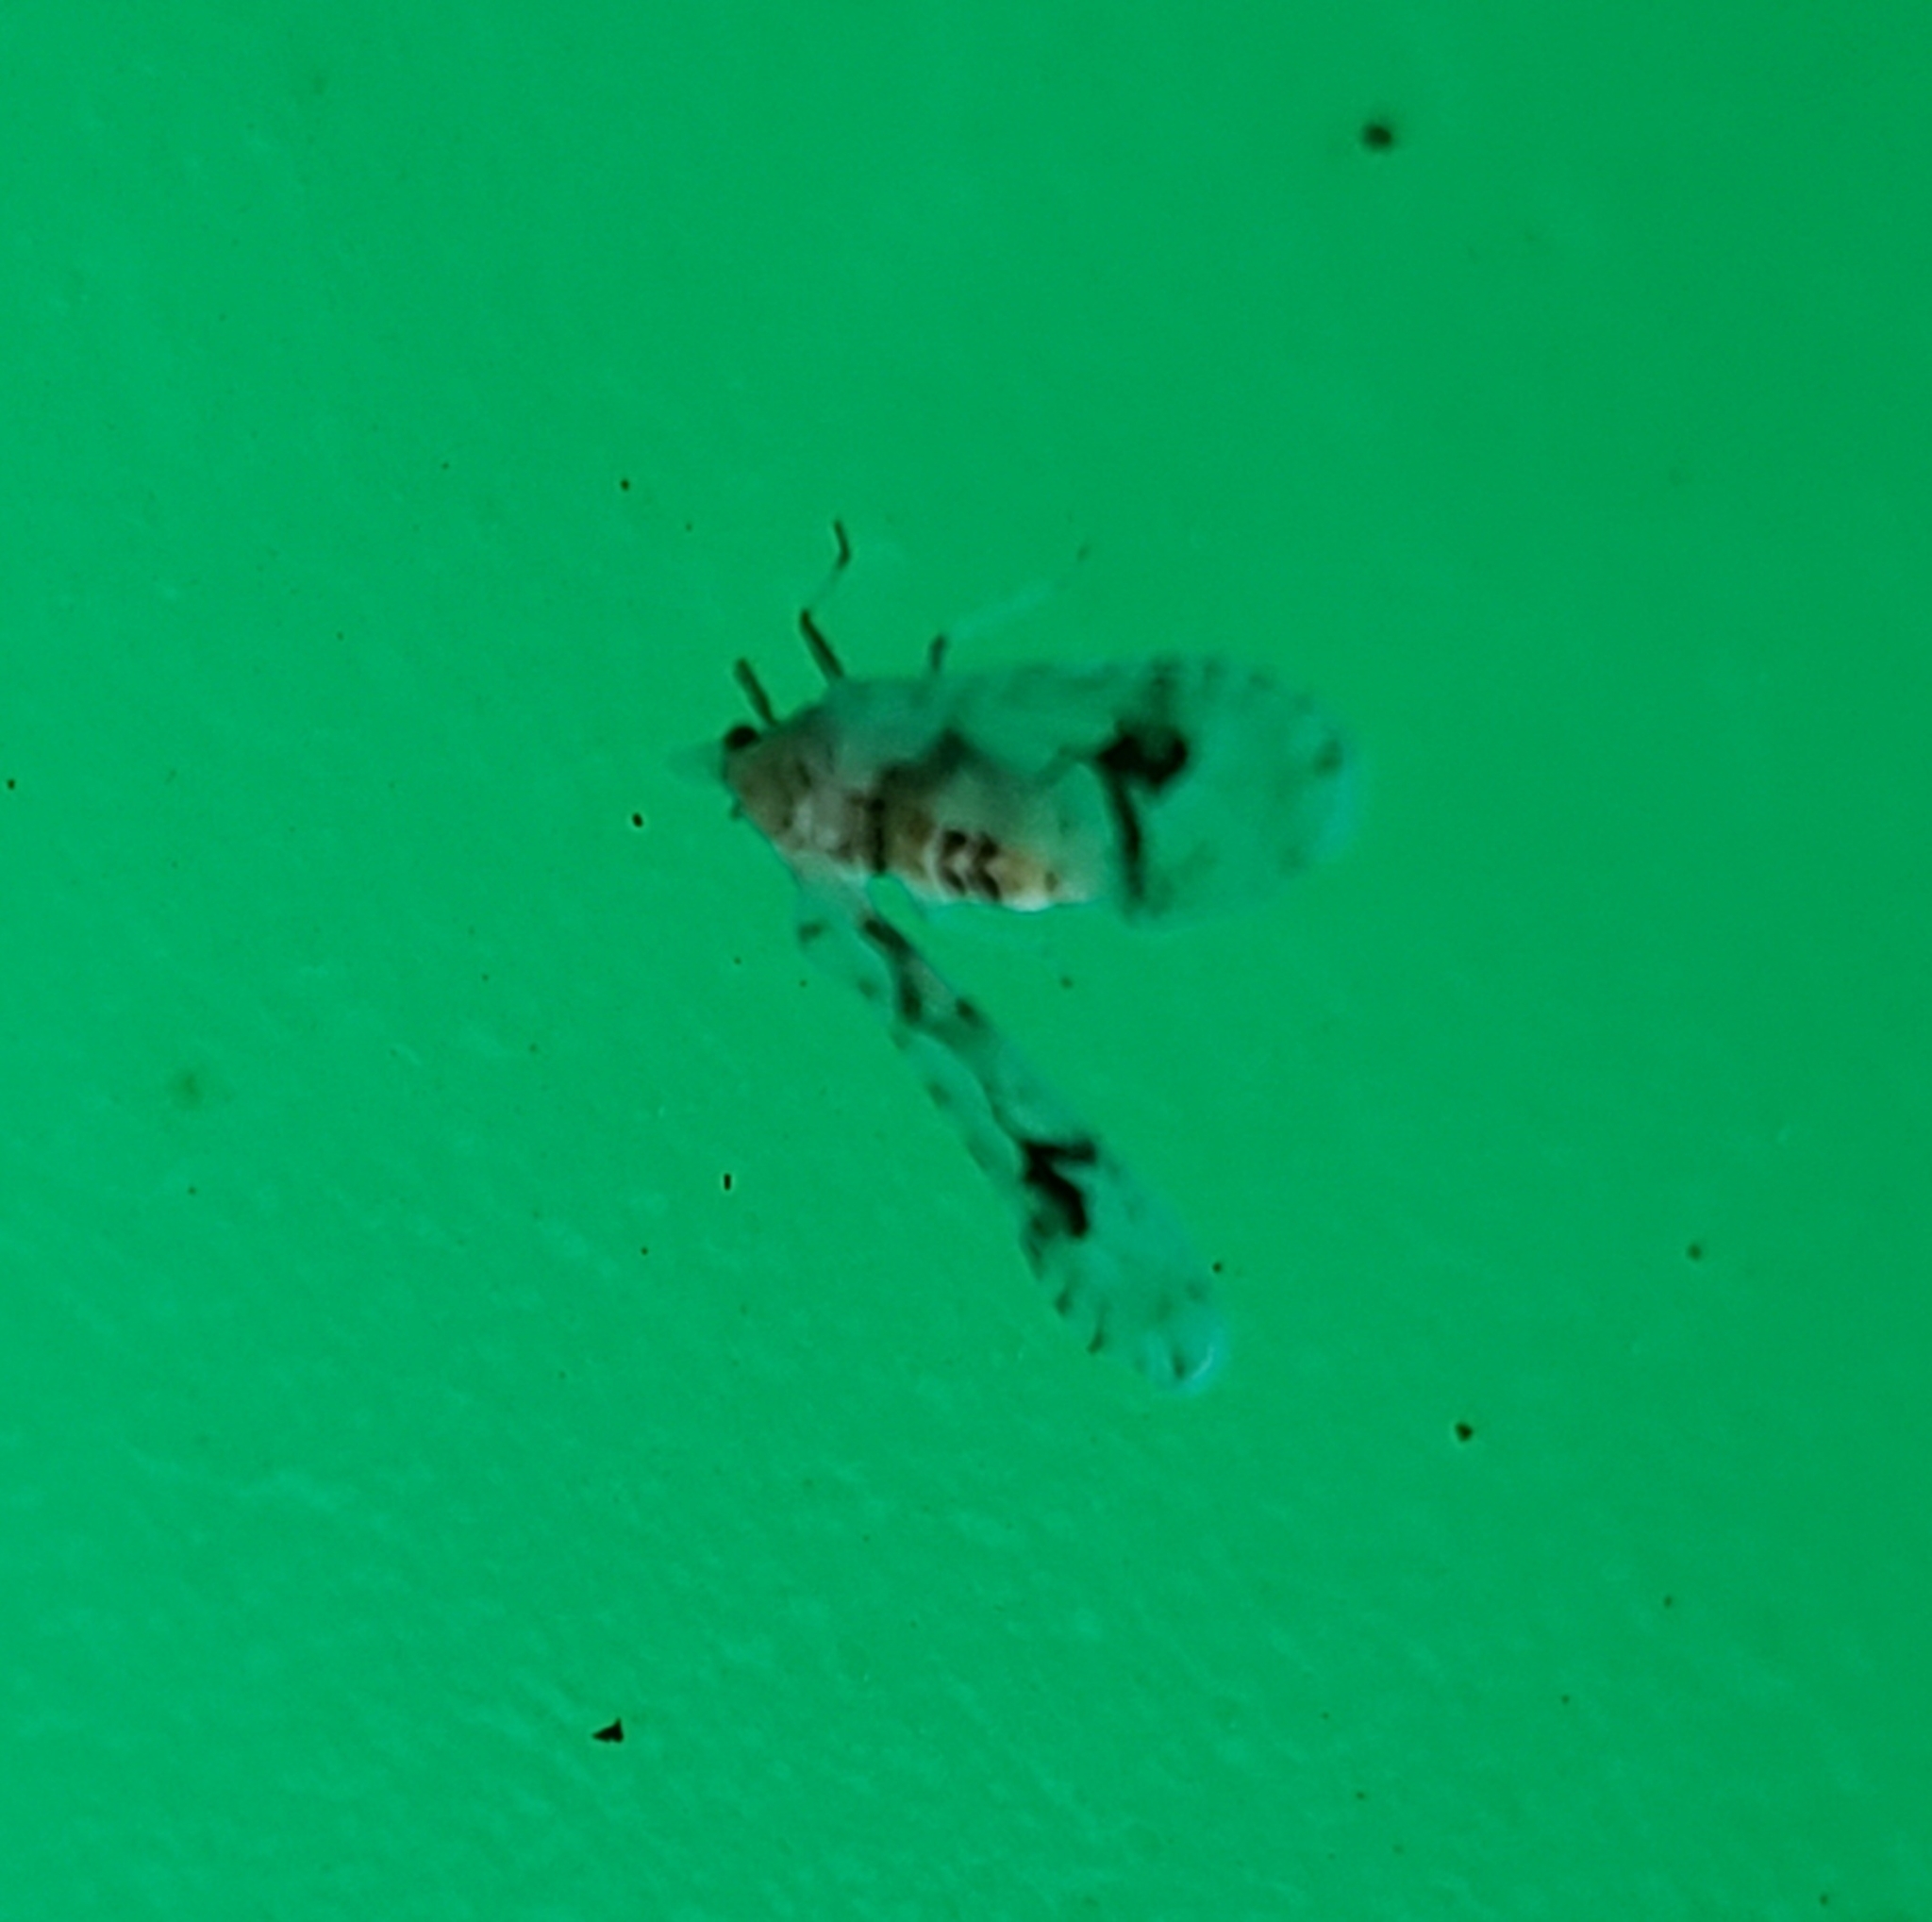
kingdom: Animalia
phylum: Arthropoda
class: Insecta
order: Hemiptera
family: Derbidae
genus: Anotia
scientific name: Anotia robertsonii
